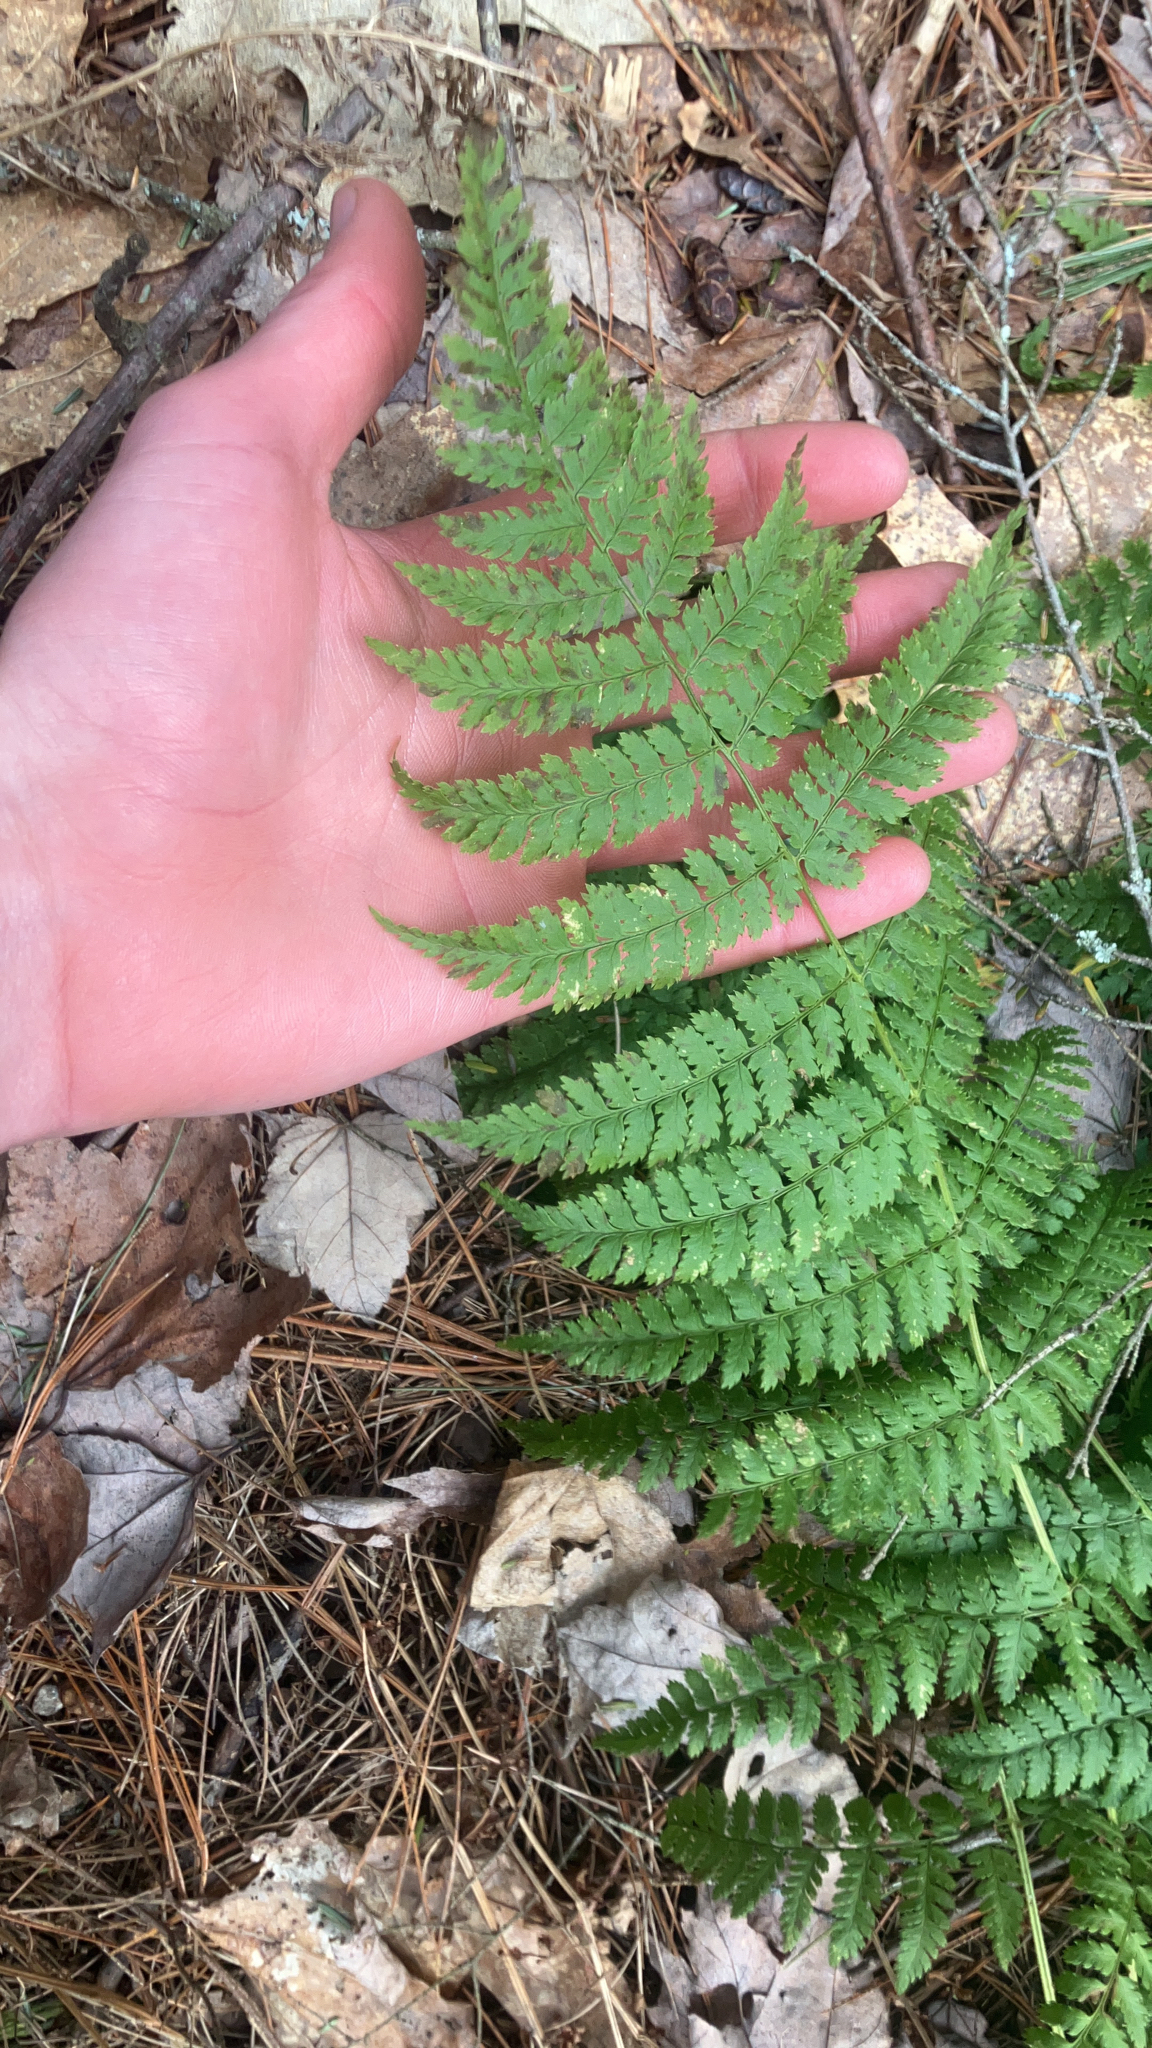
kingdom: Plantae
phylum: Tracheophyta
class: Polypodiopsida
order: Polypodiales
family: Dryopteridaceae
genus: Dryopteris
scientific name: Dryopteris intermedia
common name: Evergreen wood fern
